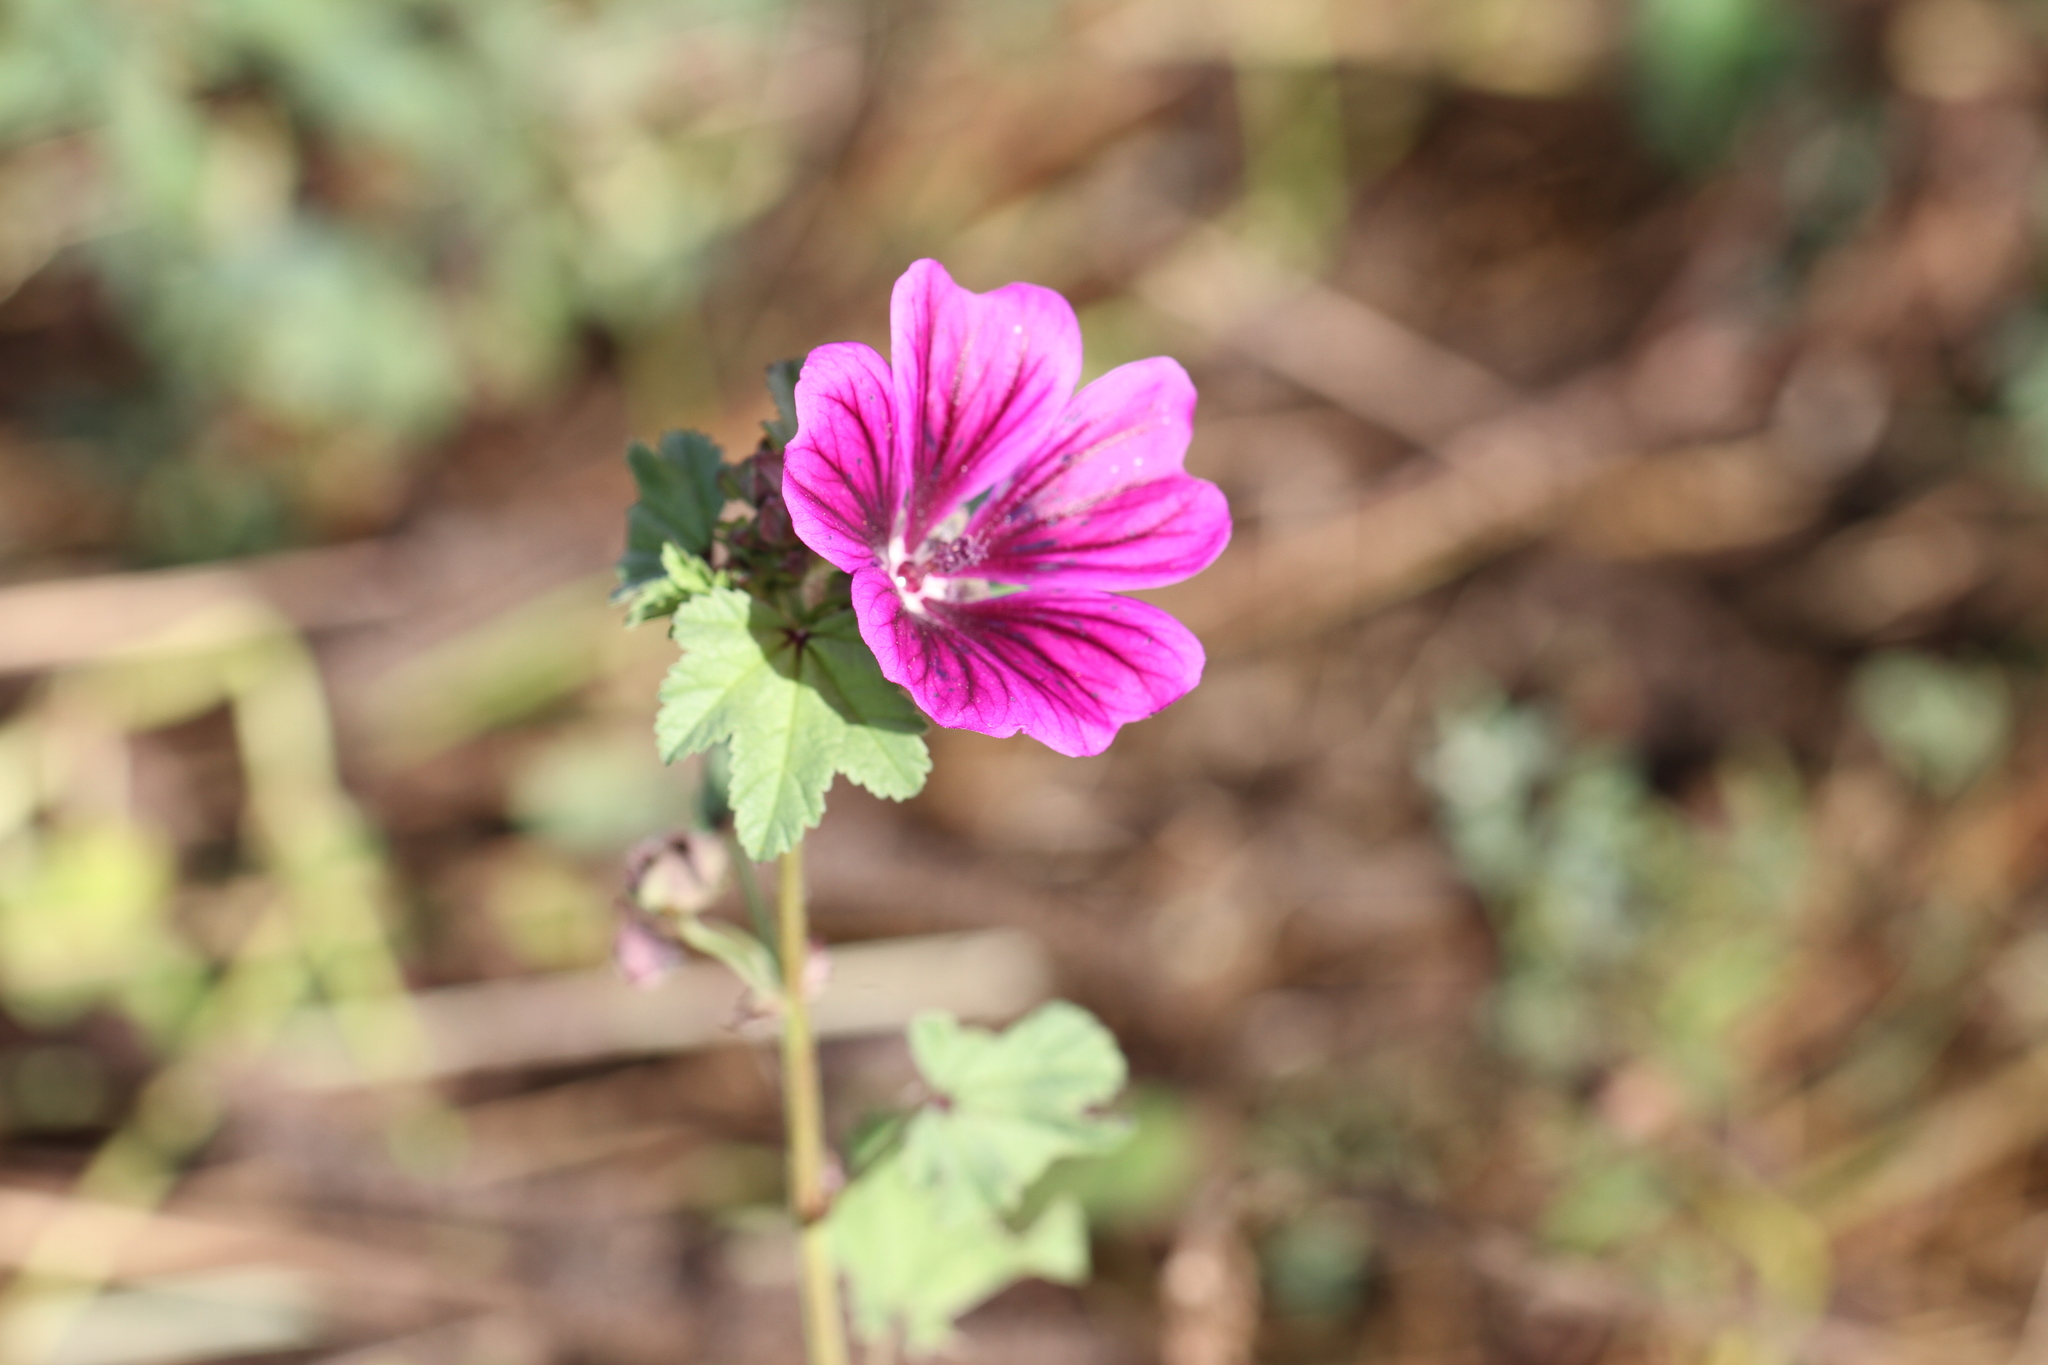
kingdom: Plantae
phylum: Tracheophyta
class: Magnoliopsida
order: Malvales
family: Malvaceae
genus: Malva
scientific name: Malva sylvestris
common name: Common mallow
